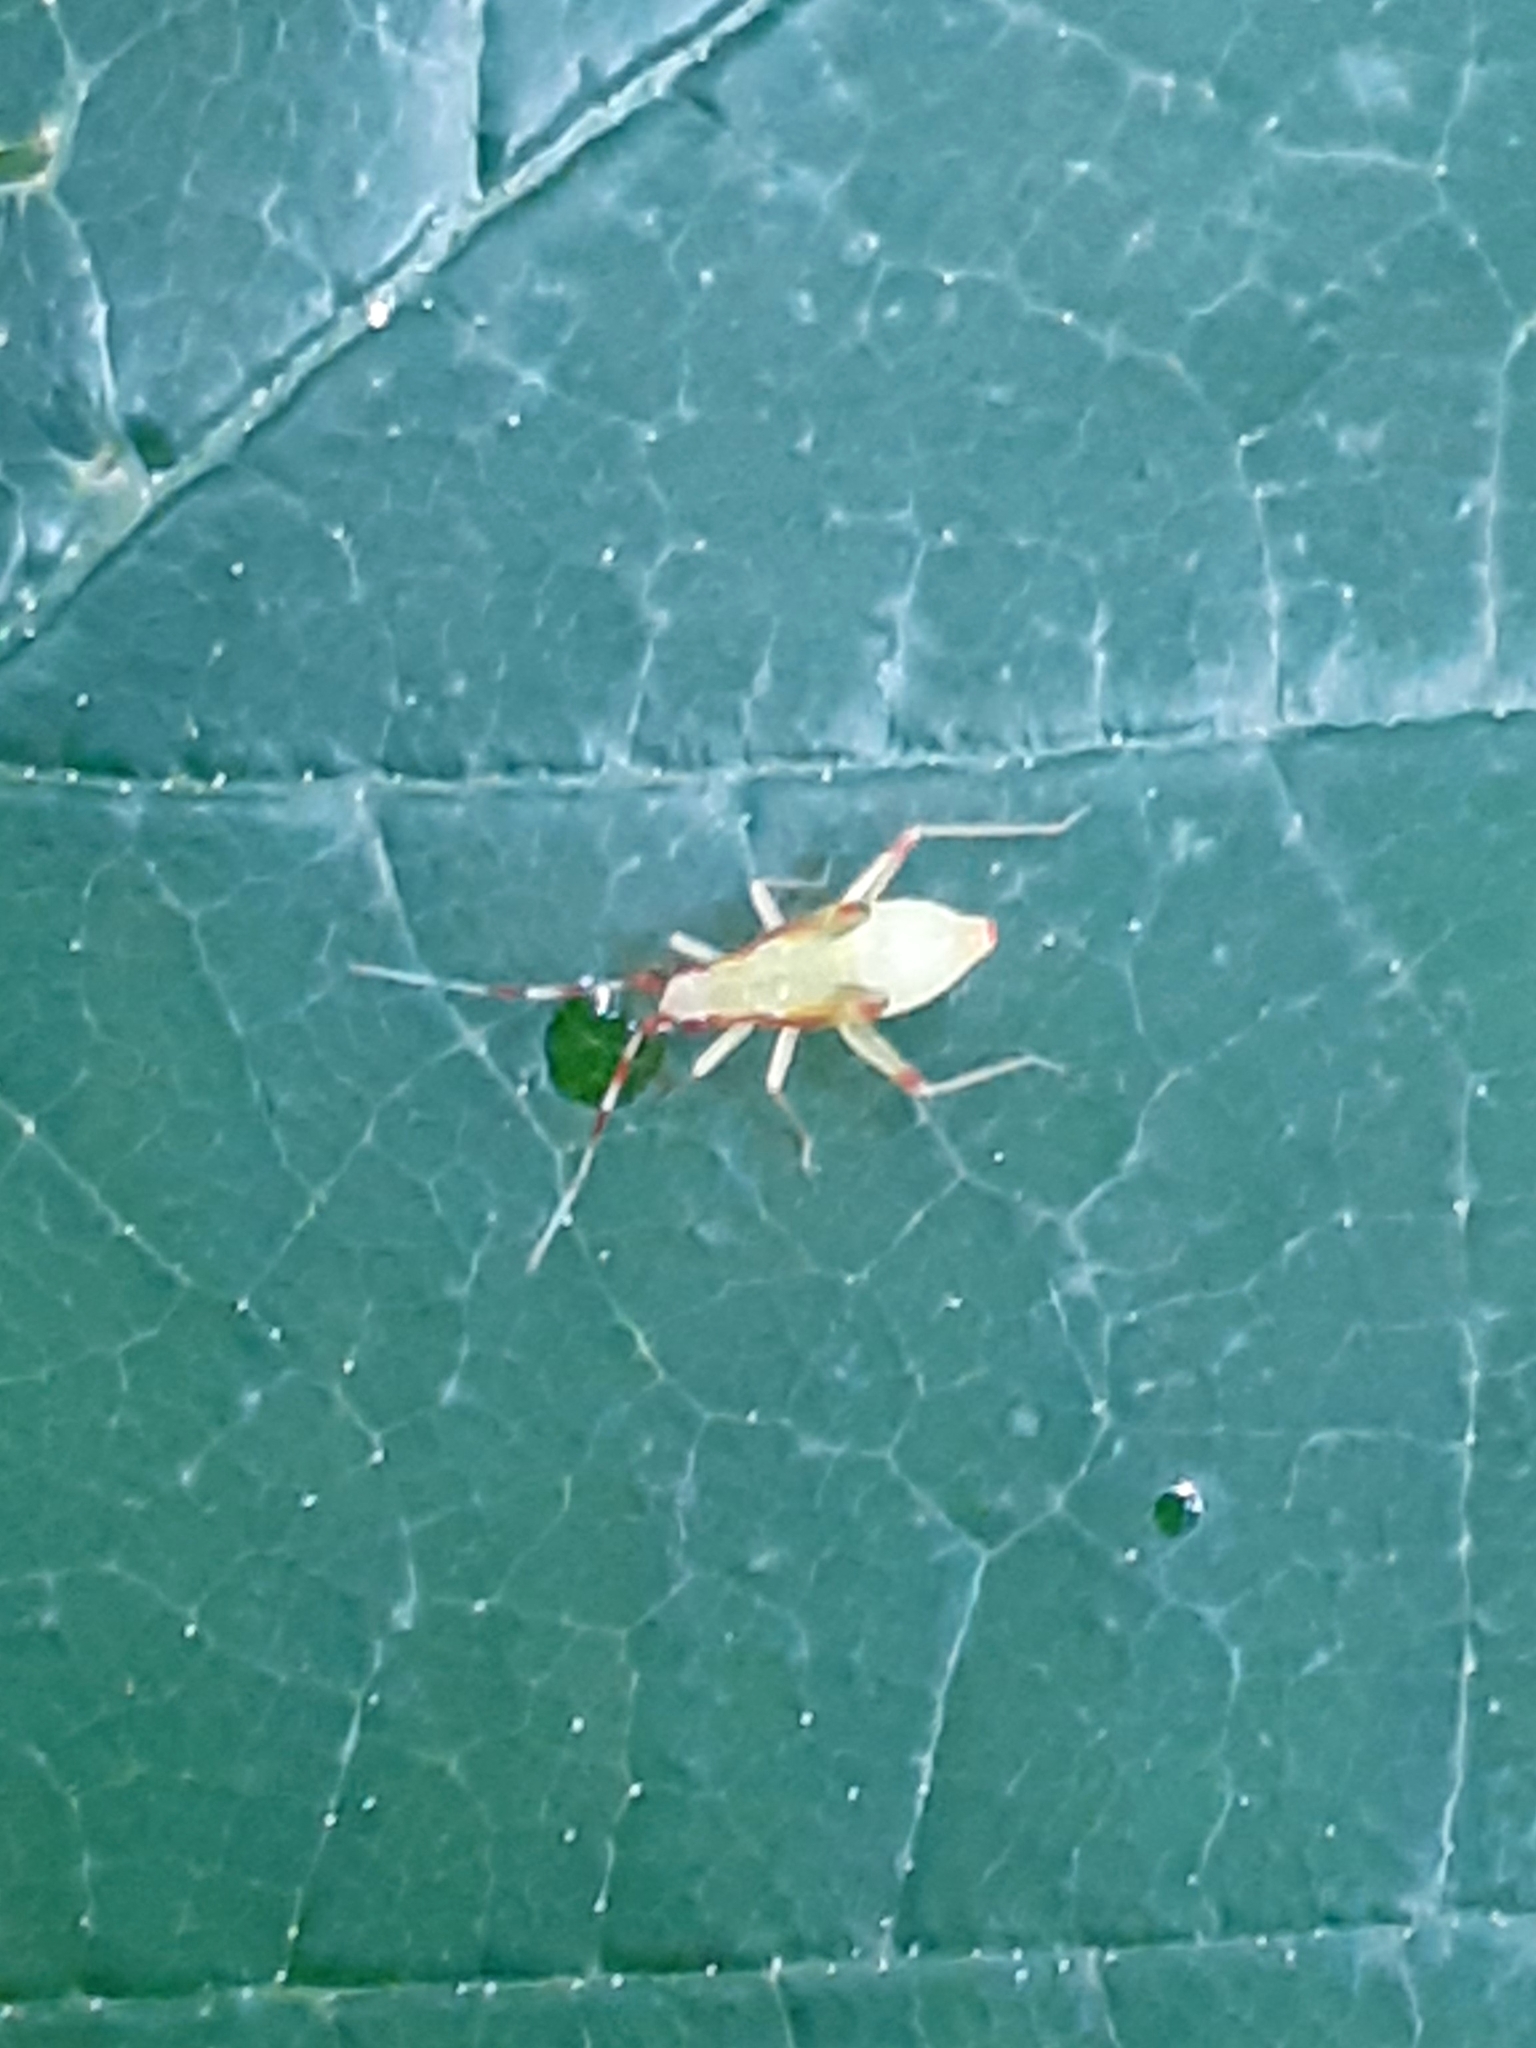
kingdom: Animalia
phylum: Arthropoda
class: Insecta
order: Hemiptera
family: Miridae
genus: Campyloneura
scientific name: Campyloneura virgula
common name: Predatory bug
